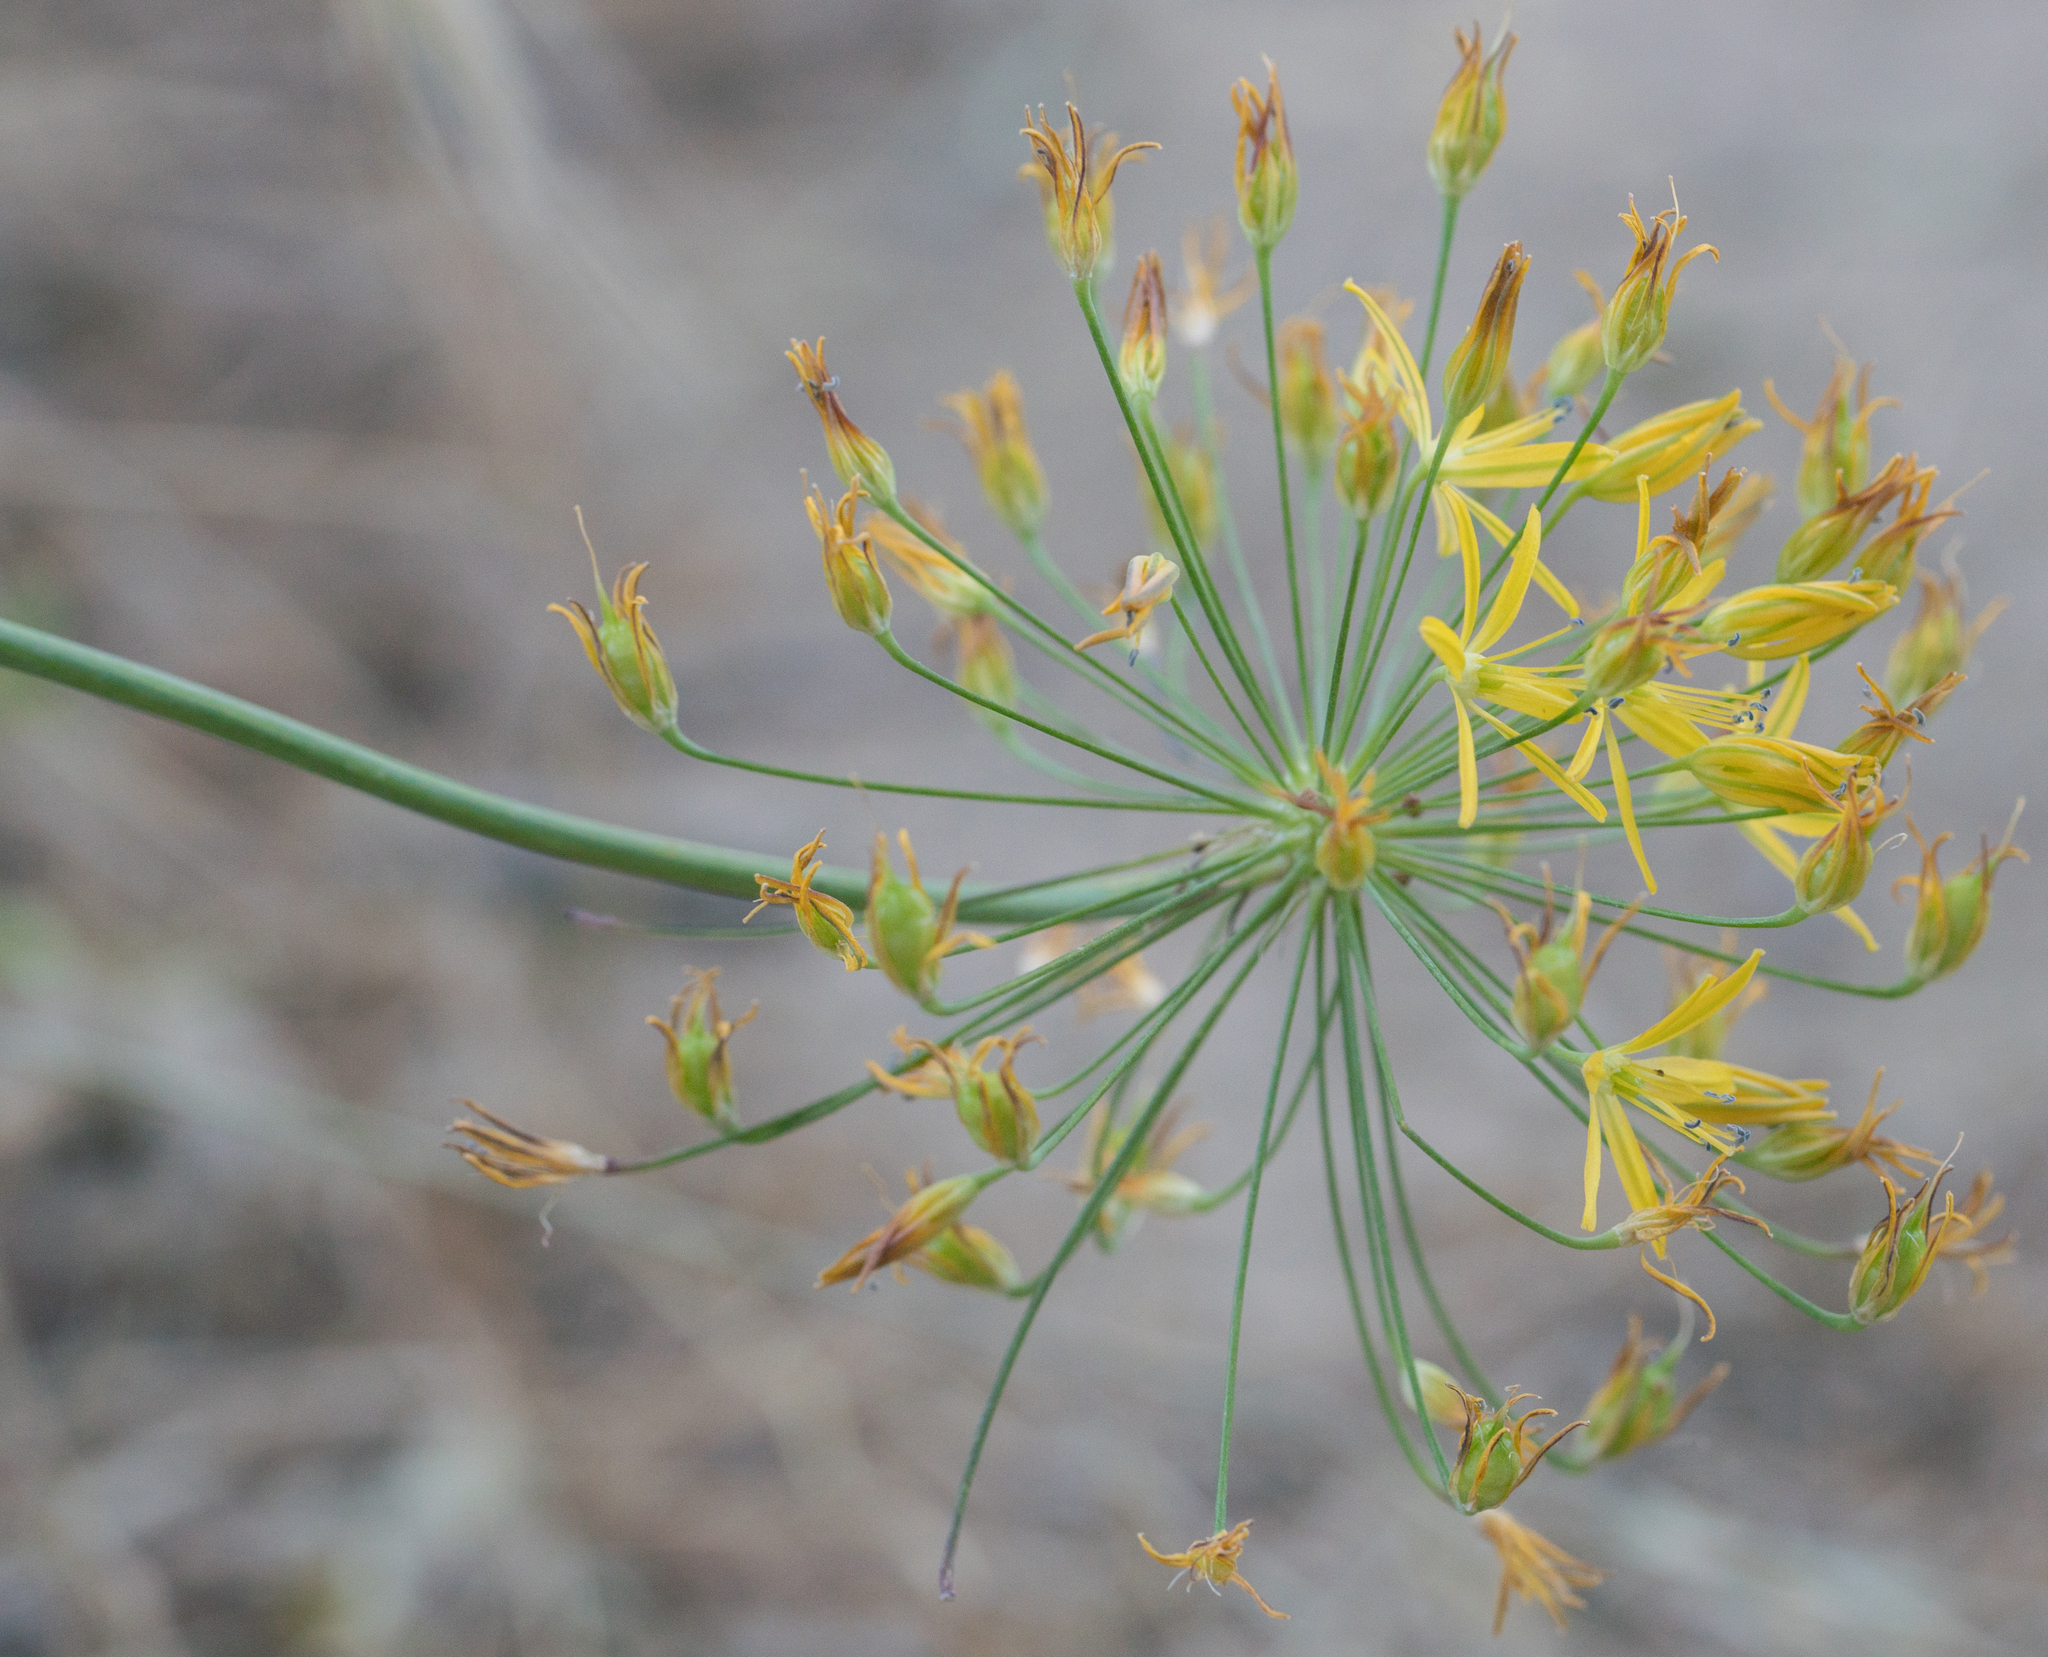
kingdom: Plantae
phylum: Tracheophyta
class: Liliopsida
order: Asparagales
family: Asparagaceae
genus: Bloomeria
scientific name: Bloomeria crocea
